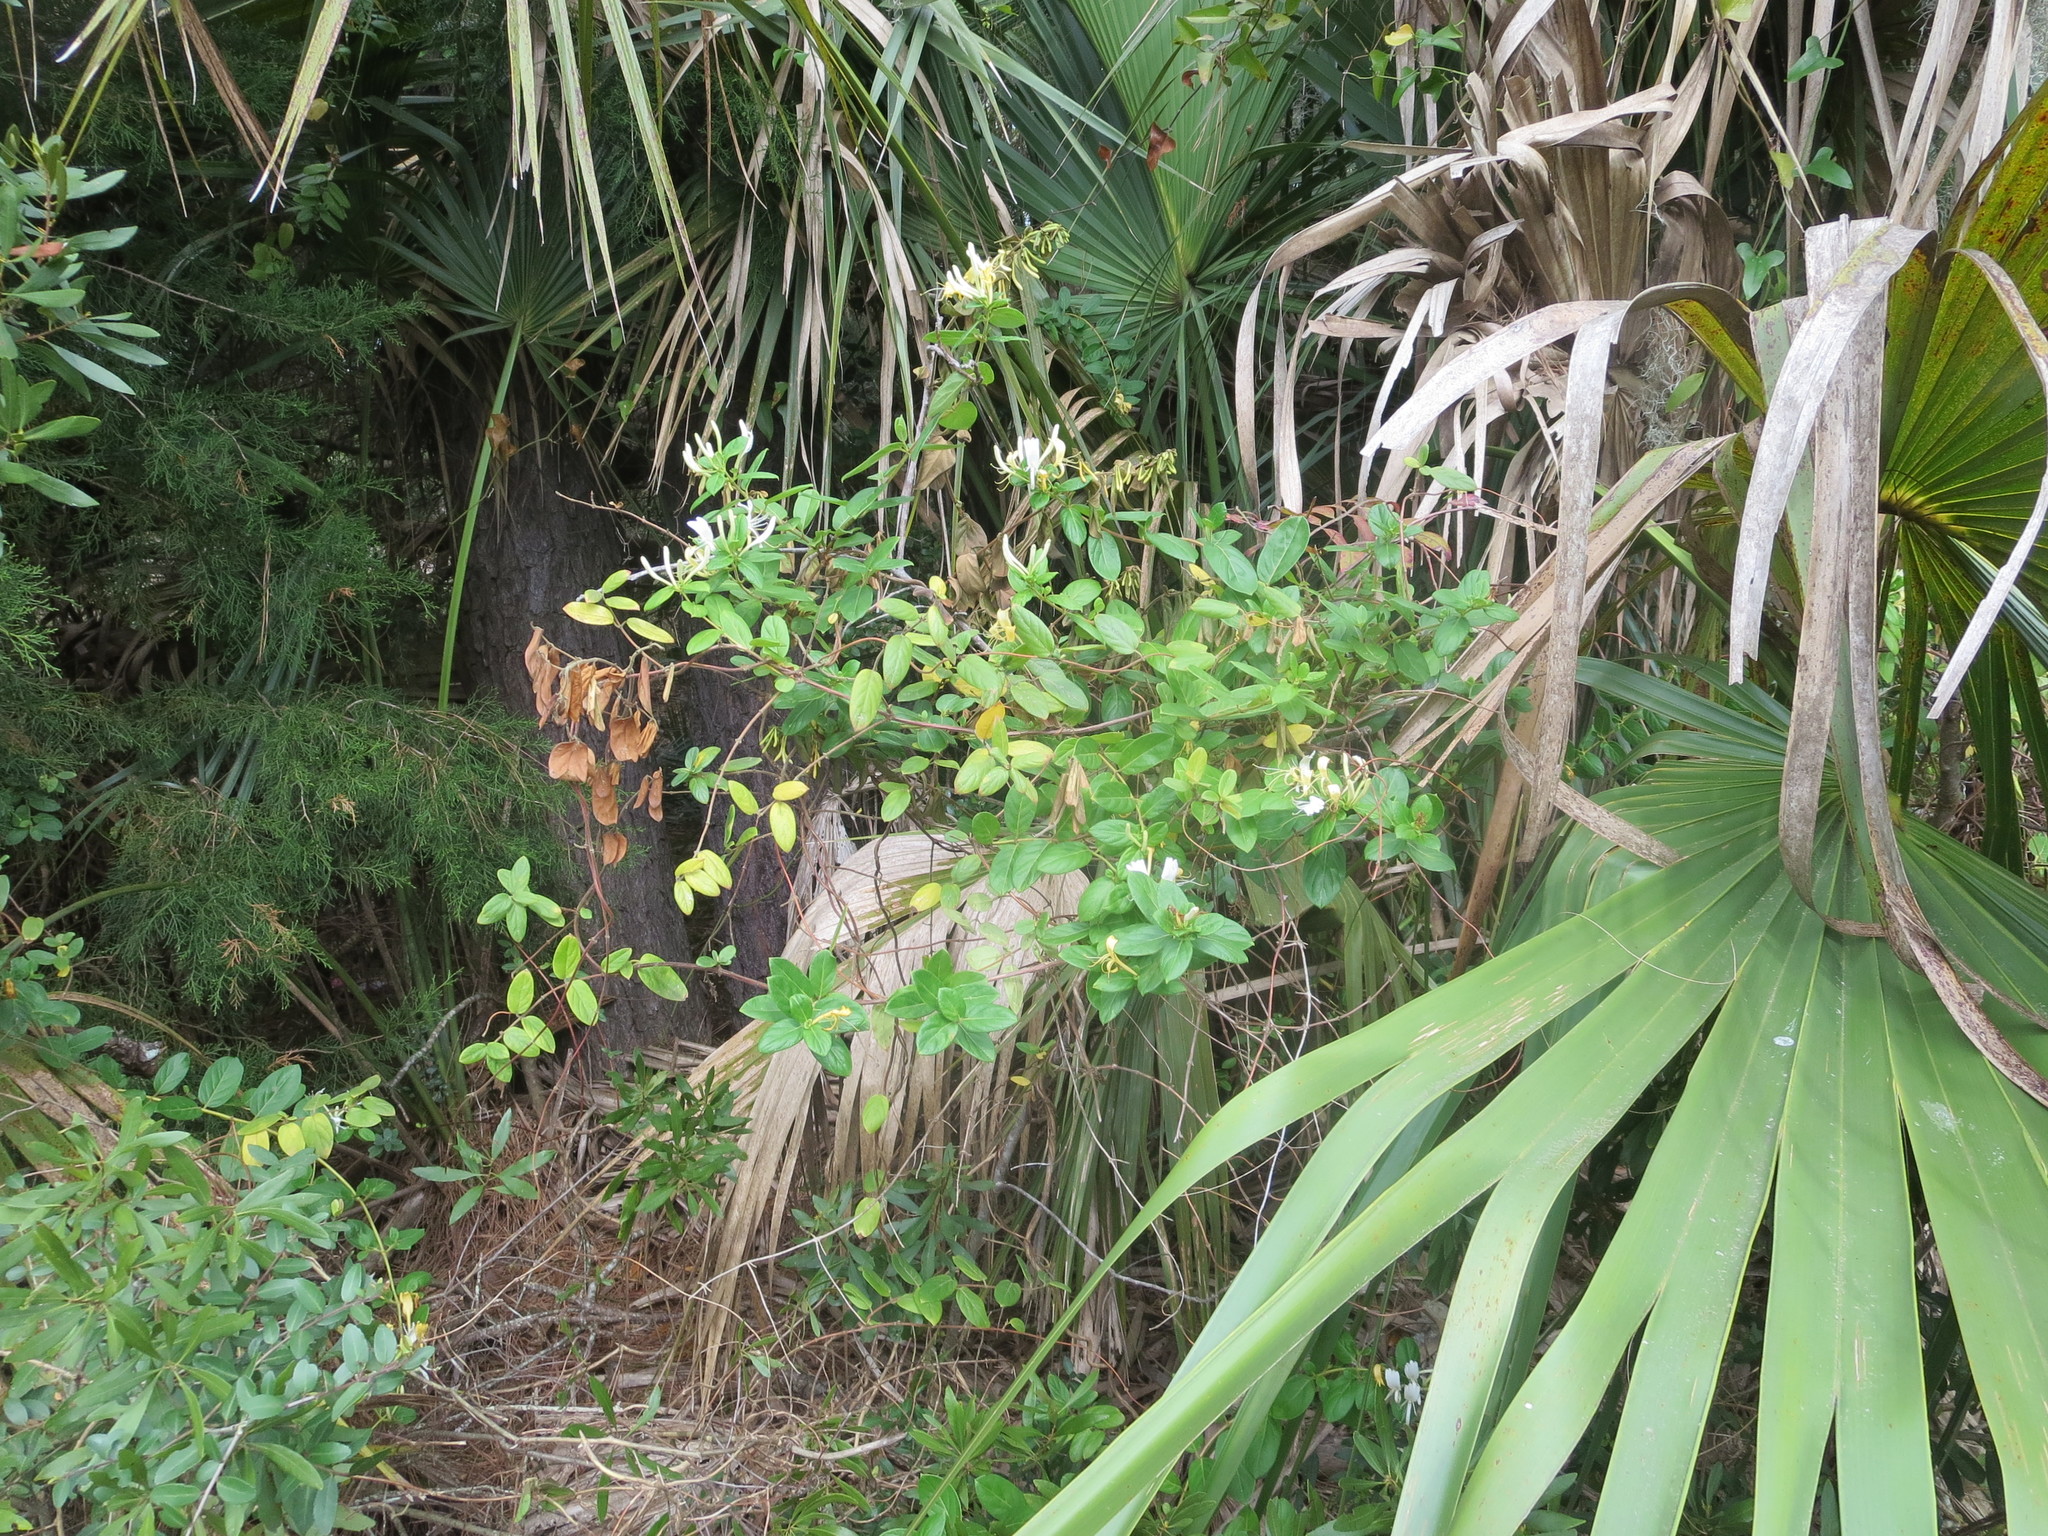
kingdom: Plantae
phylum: Tracheophyta
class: Magnoliopsida
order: Dipsacales
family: Caprifoliaceae
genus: Lonicera
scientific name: Lonicera japonica
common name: Japanese honeysuckle
